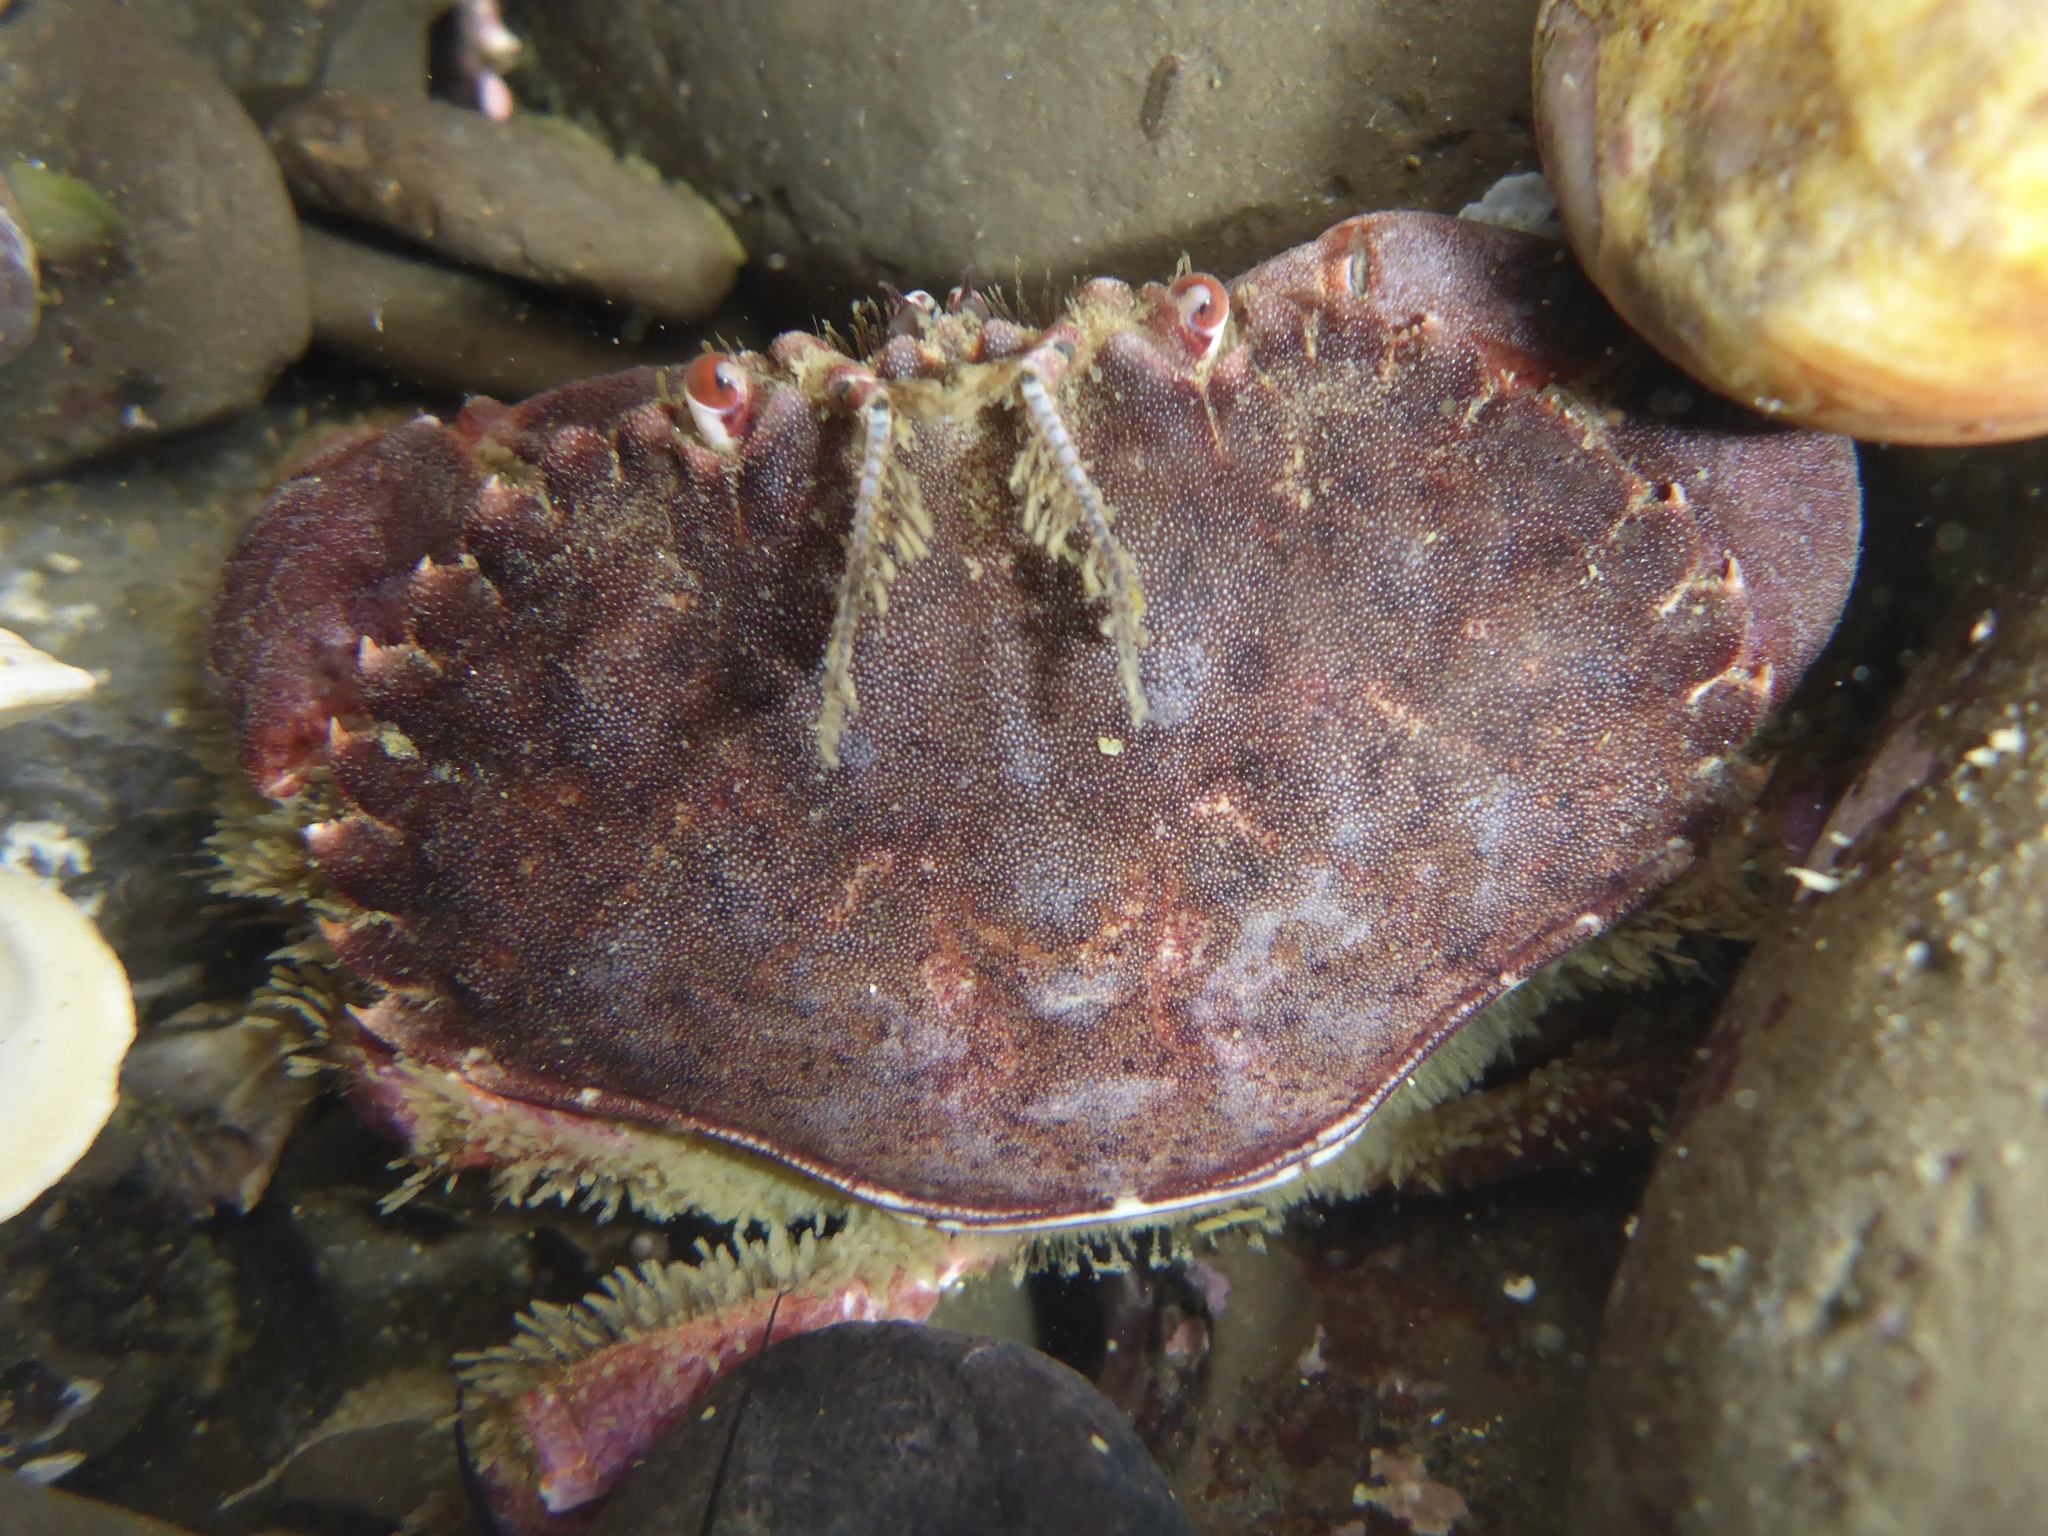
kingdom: Animalia
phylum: Arthropoda
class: Malacostraca
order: Decapoda
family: Cancridae
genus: Romaleon
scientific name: Romaleon antennarium
